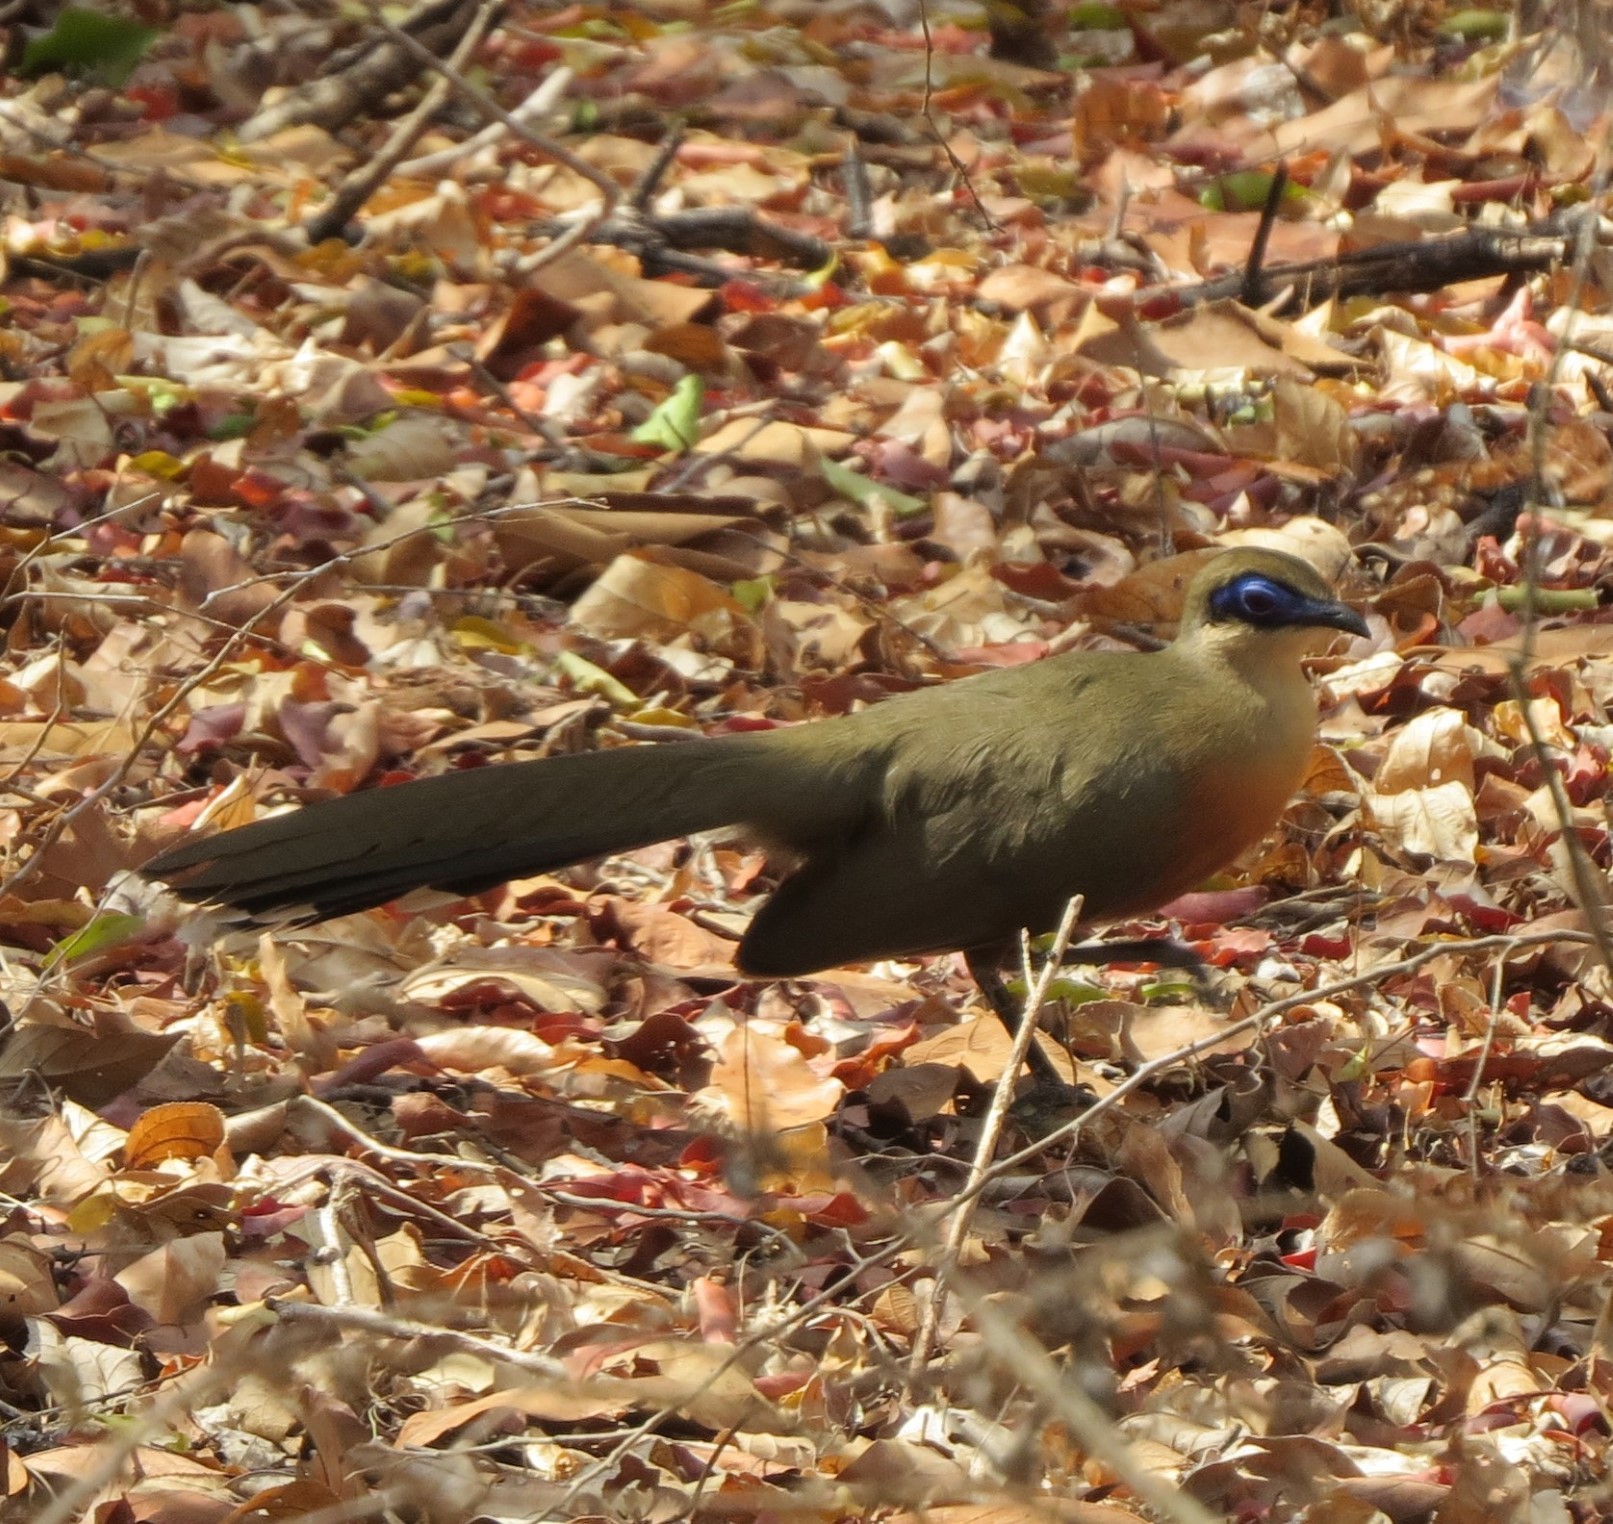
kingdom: Animalia
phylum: Chordata
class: Aves
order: Cuculiformes
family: Cuculidae
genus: Coua
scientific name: Coua coquereli
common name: Coquerel's coua
